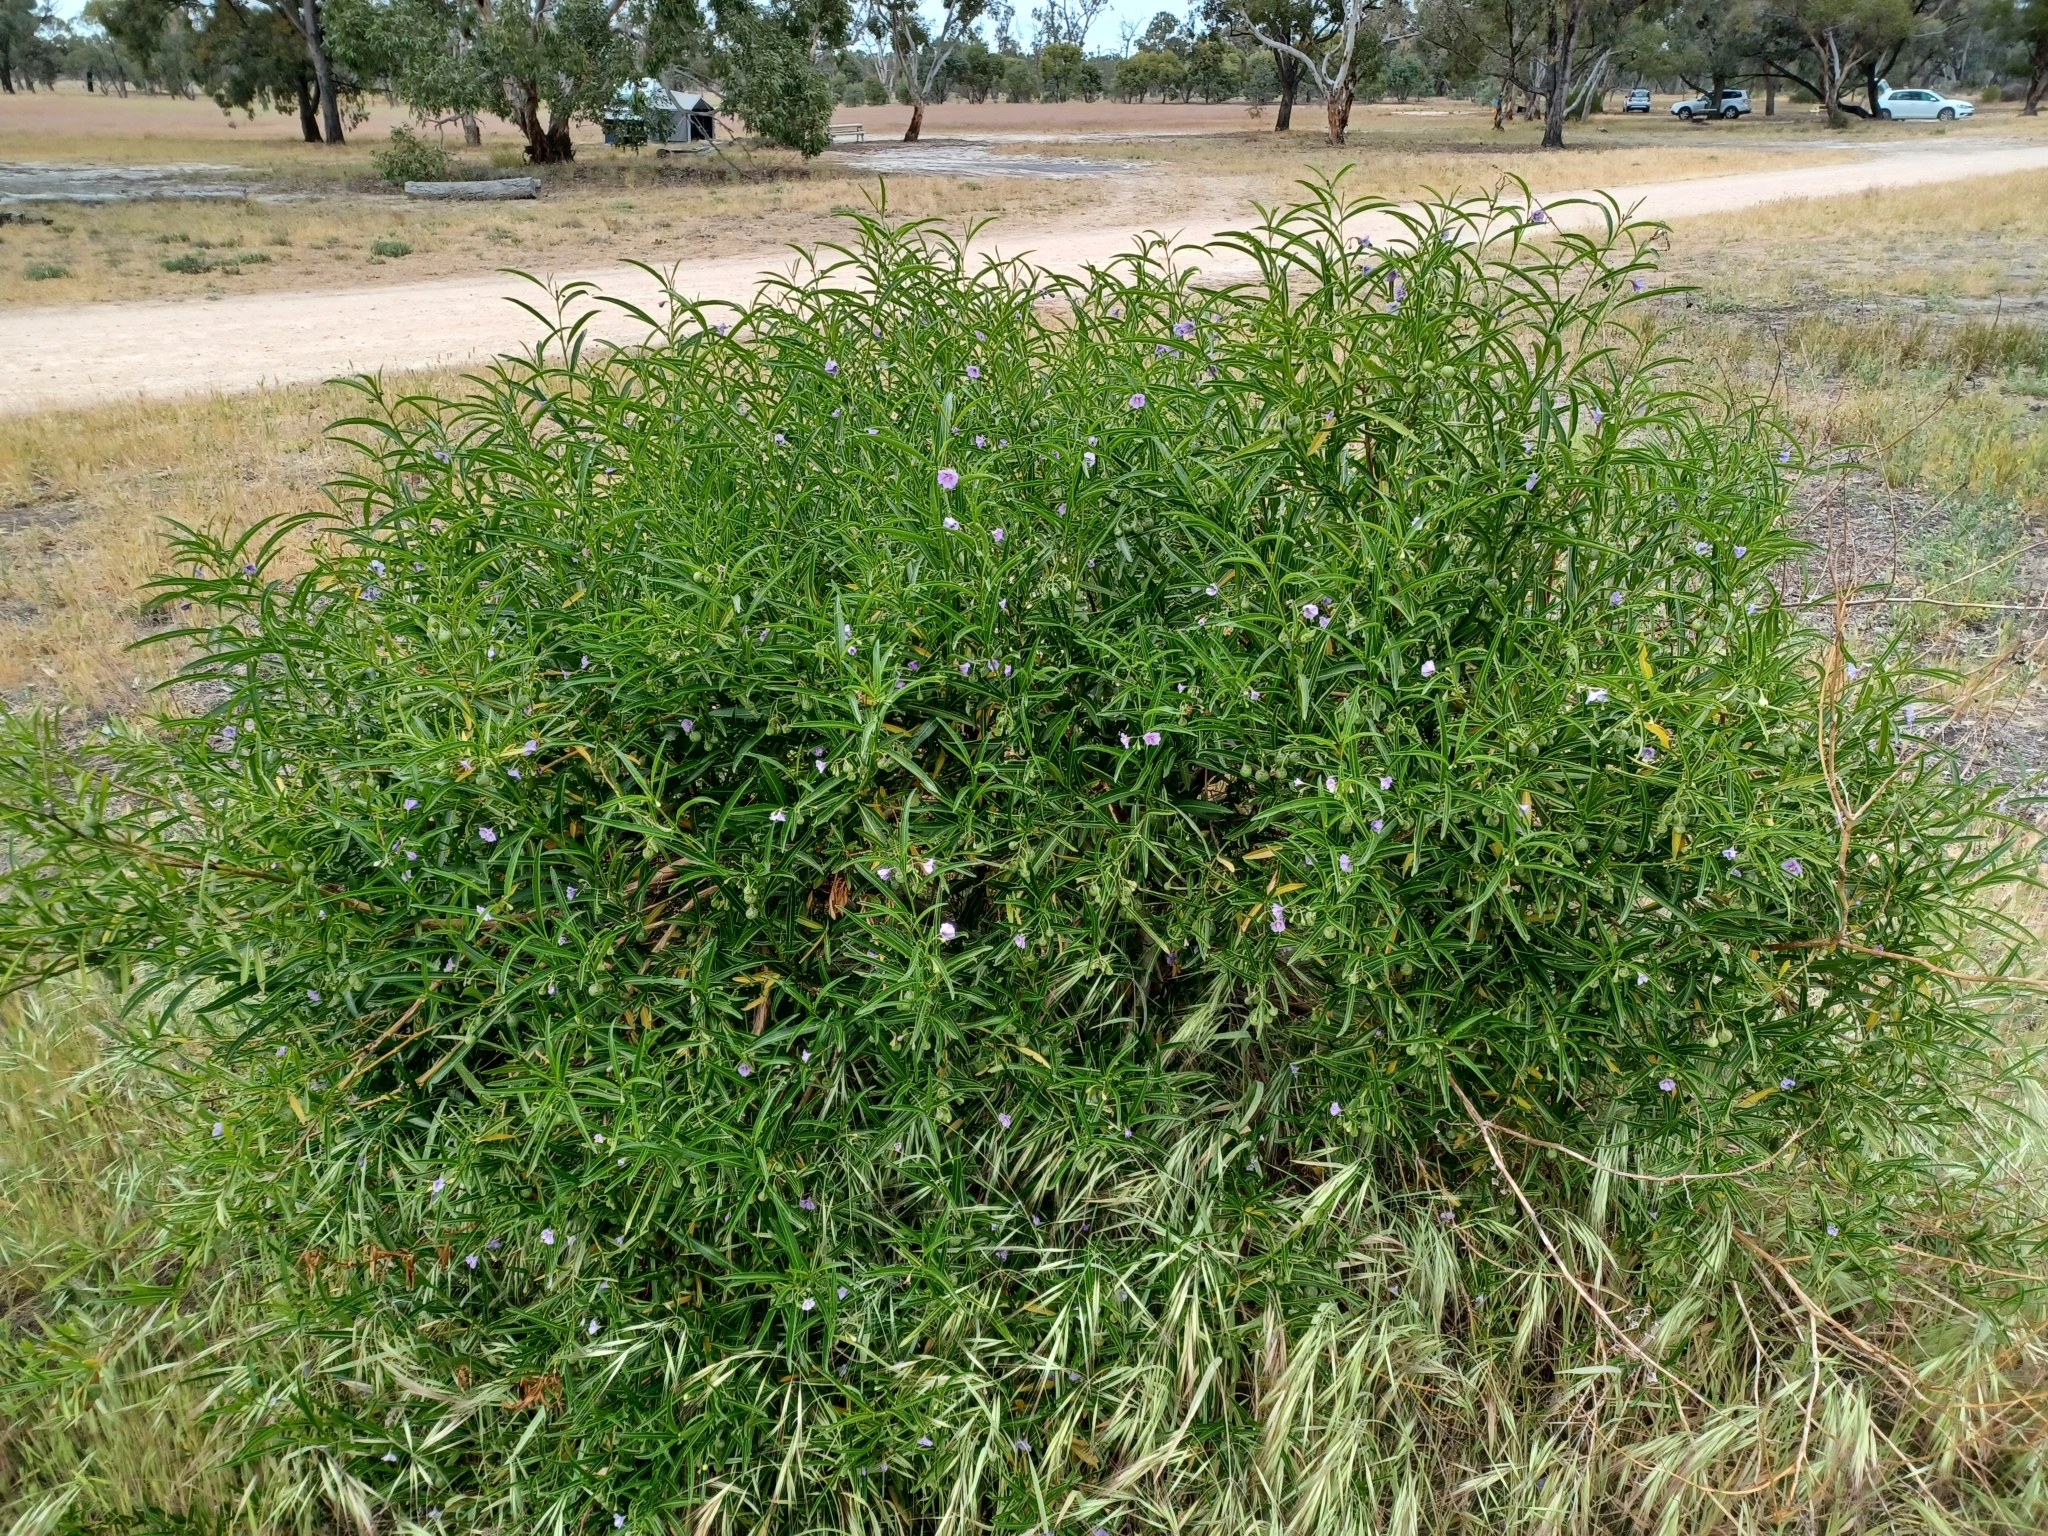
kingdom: Plantae
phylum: Tracheophyta
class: Magnoliopsida
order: Solanales
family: Solanaceae
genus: Solanum
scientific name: Solanum simile
